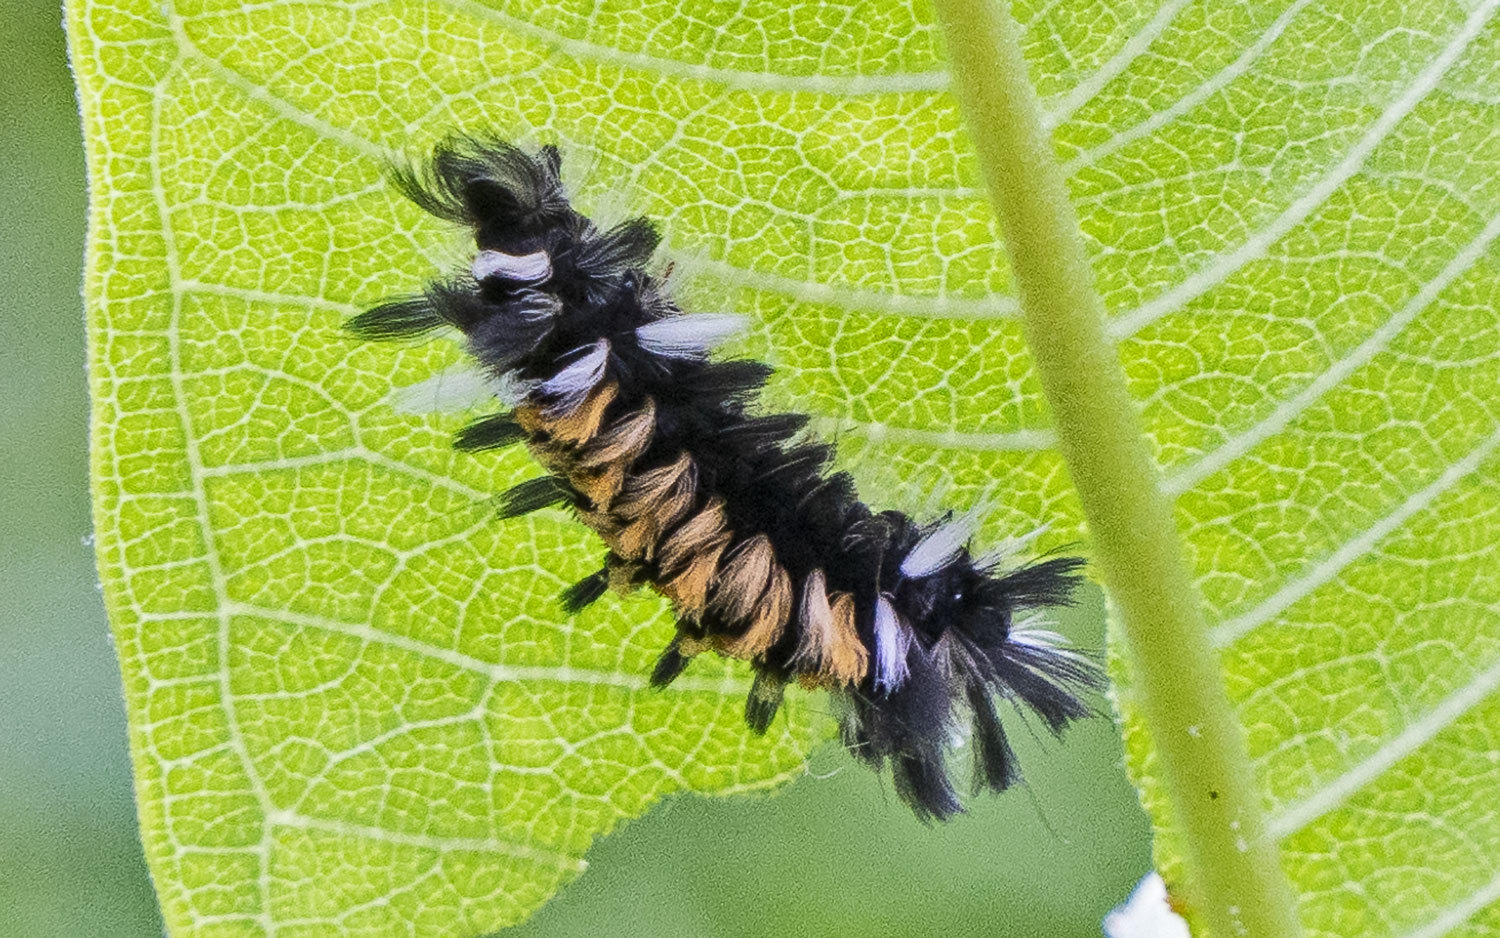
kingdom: Animalia
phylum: Arthropoda
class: Insecta
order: Lepidoptera
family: Erebidae
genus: Euchaetes
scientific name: Euchaetes egle
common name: Milkweed tussock moth
